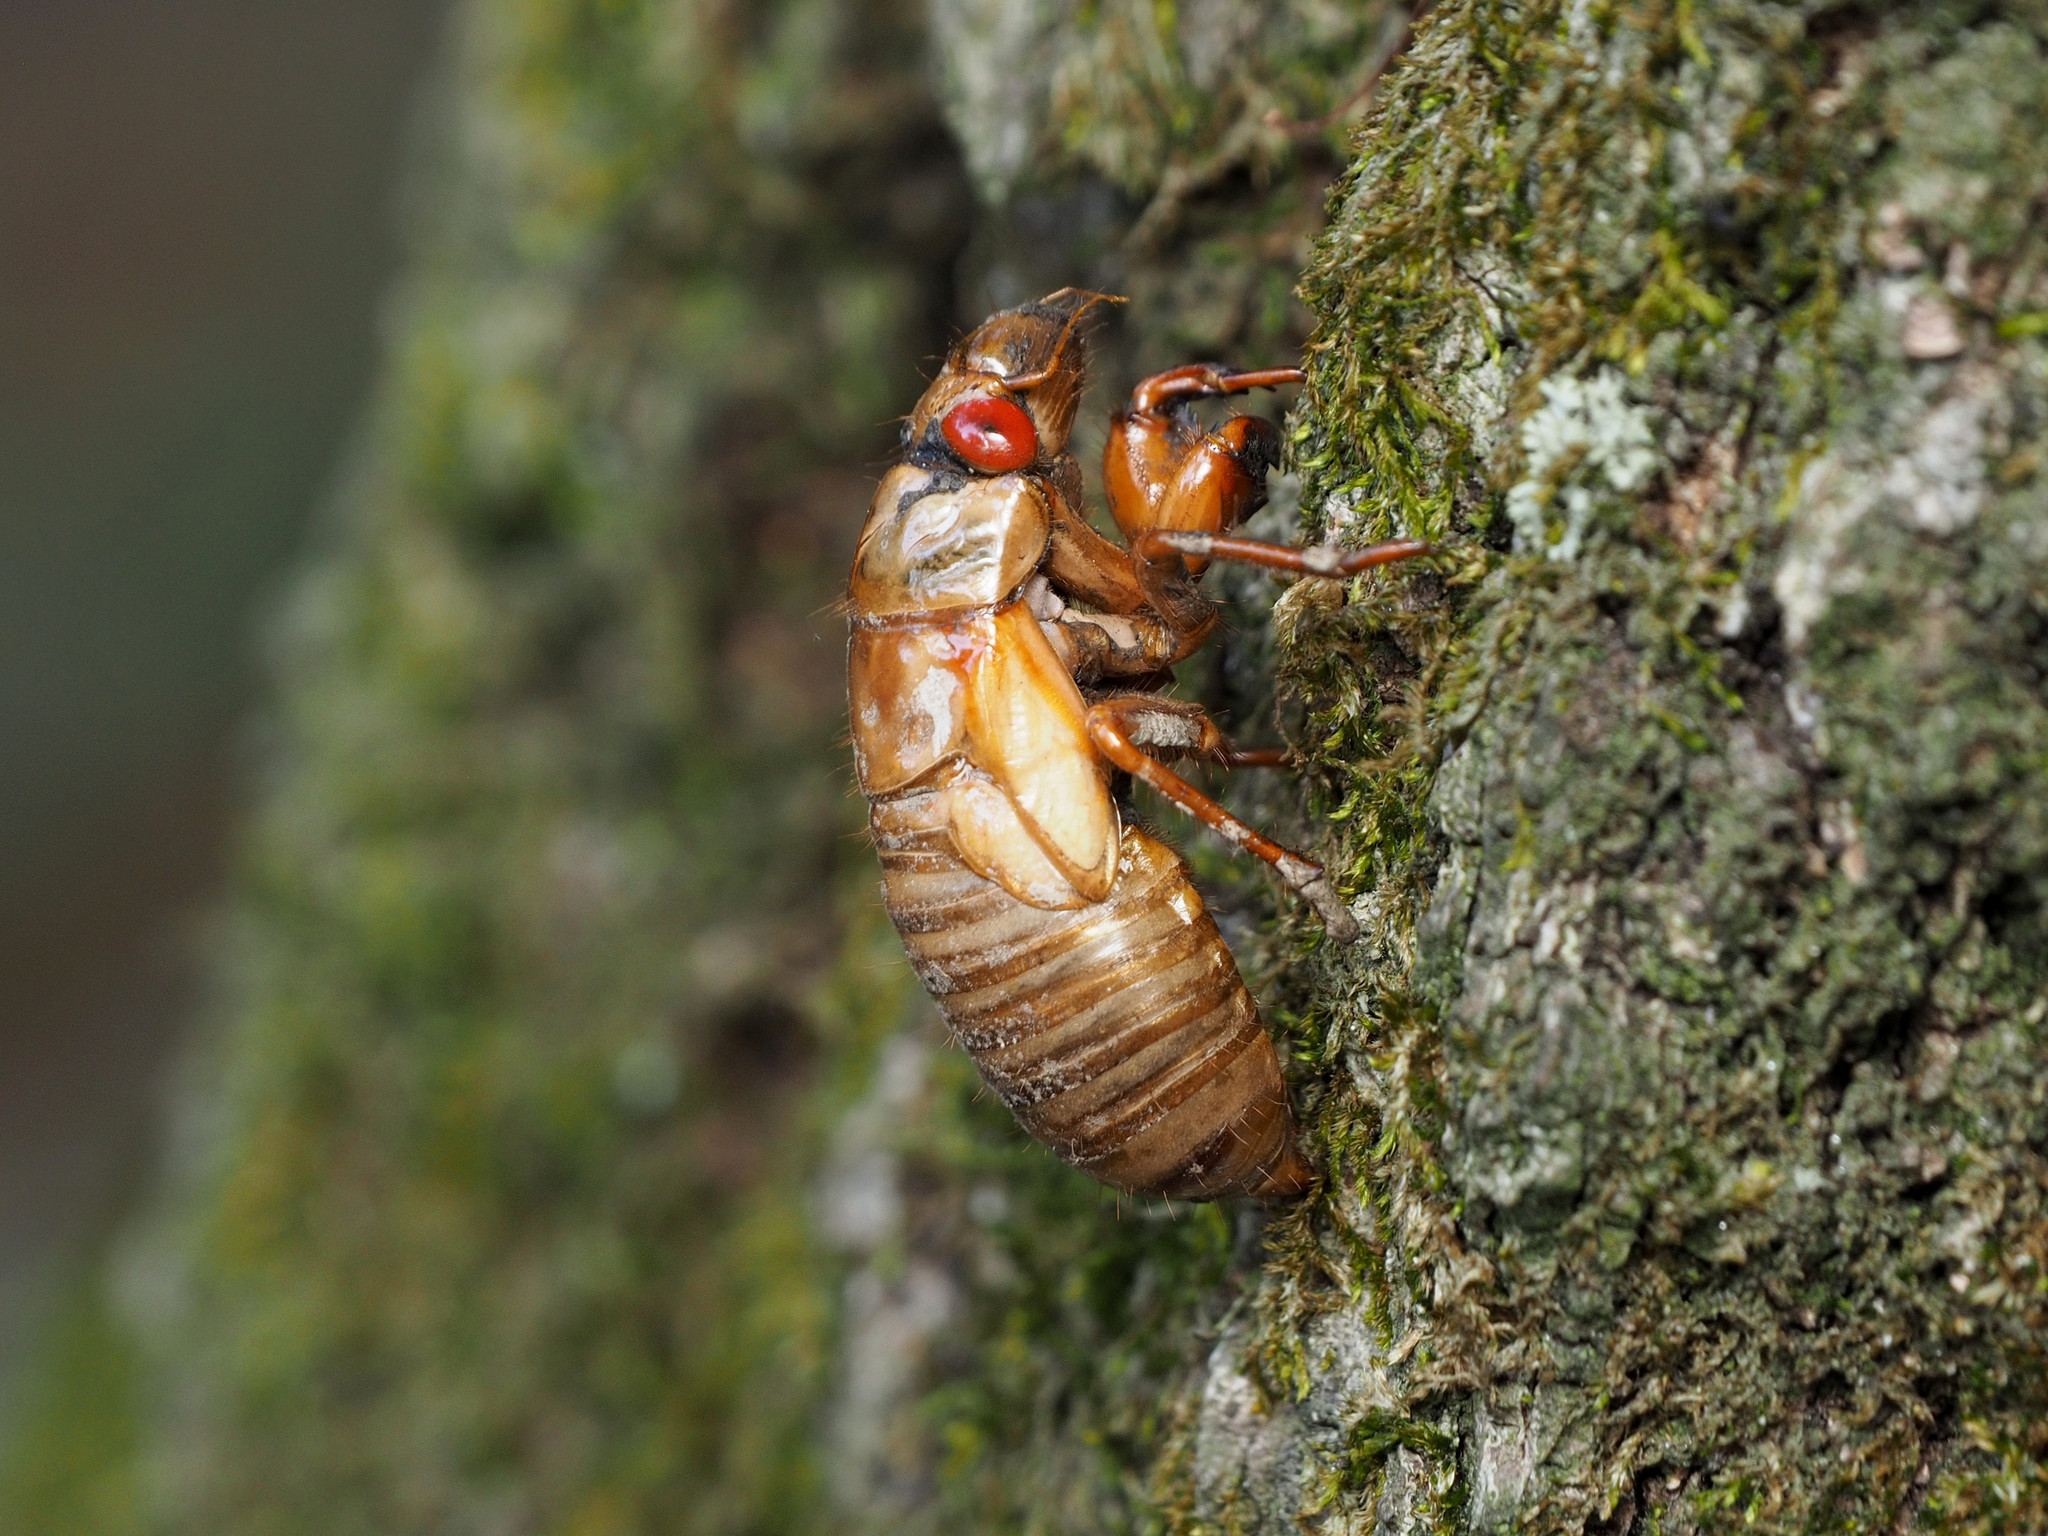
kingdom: Animalia
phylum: Arthropoda
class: Insecta
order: Hemiptera
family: Cicadidae
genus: Magicicada
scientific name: Magicicada
